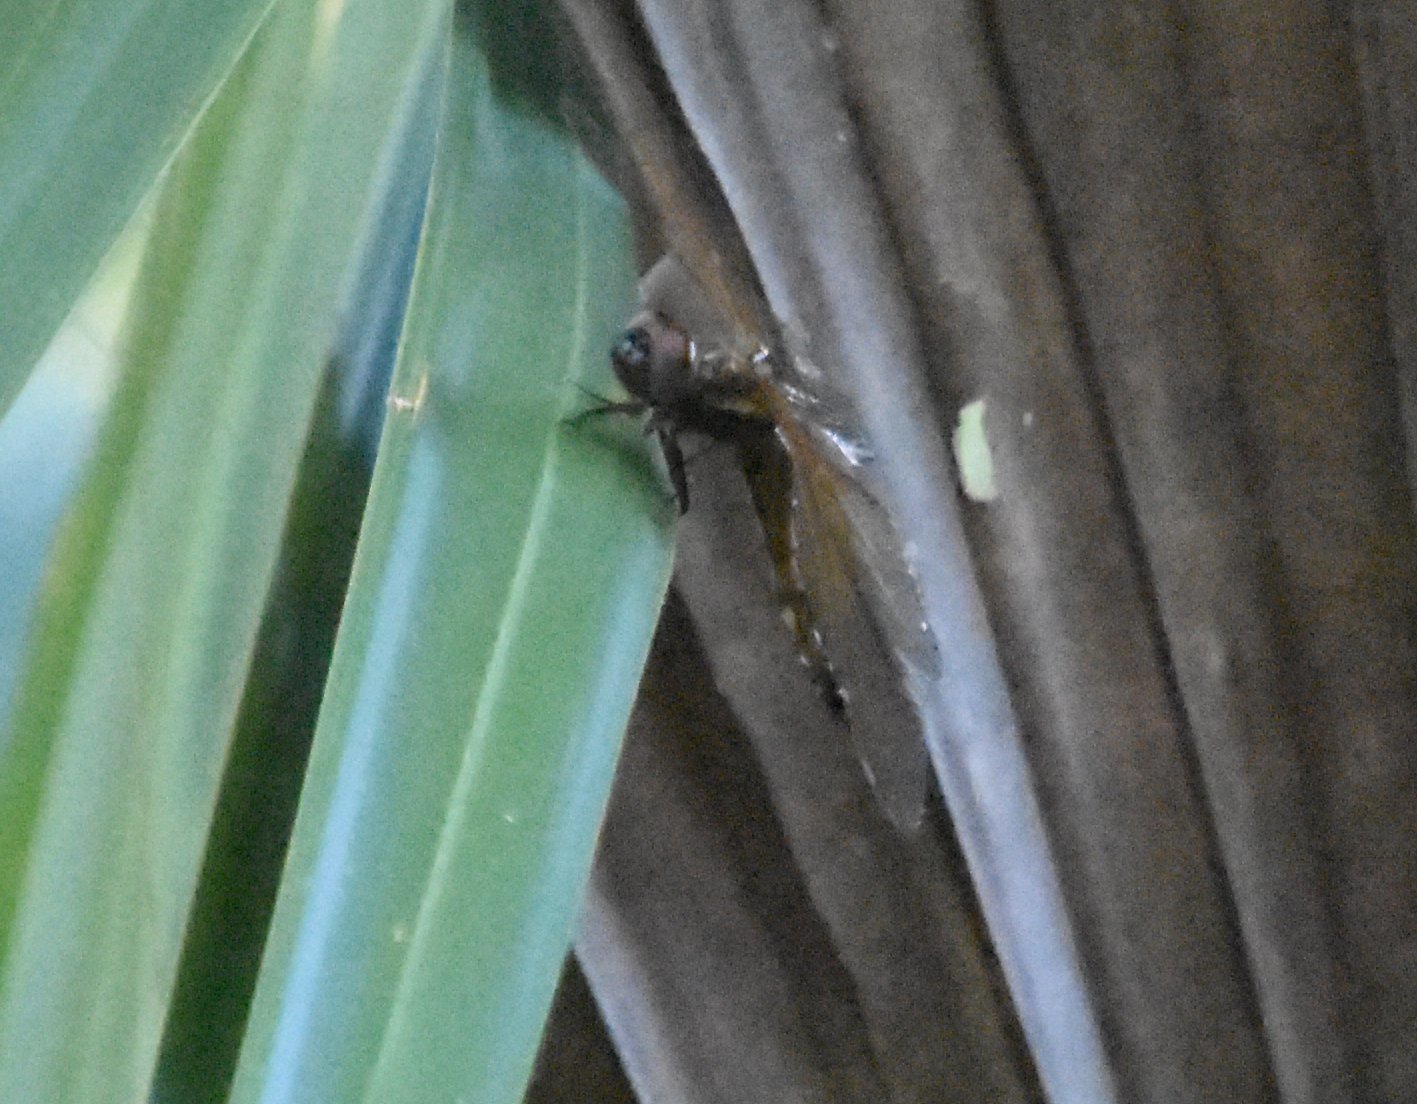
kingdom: Animalia
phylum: Arthropoda
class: Insecta
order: Odonata
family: Libellulidae
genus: Miathyria
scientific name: Miathyria marcella
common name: Hyacinth glider
